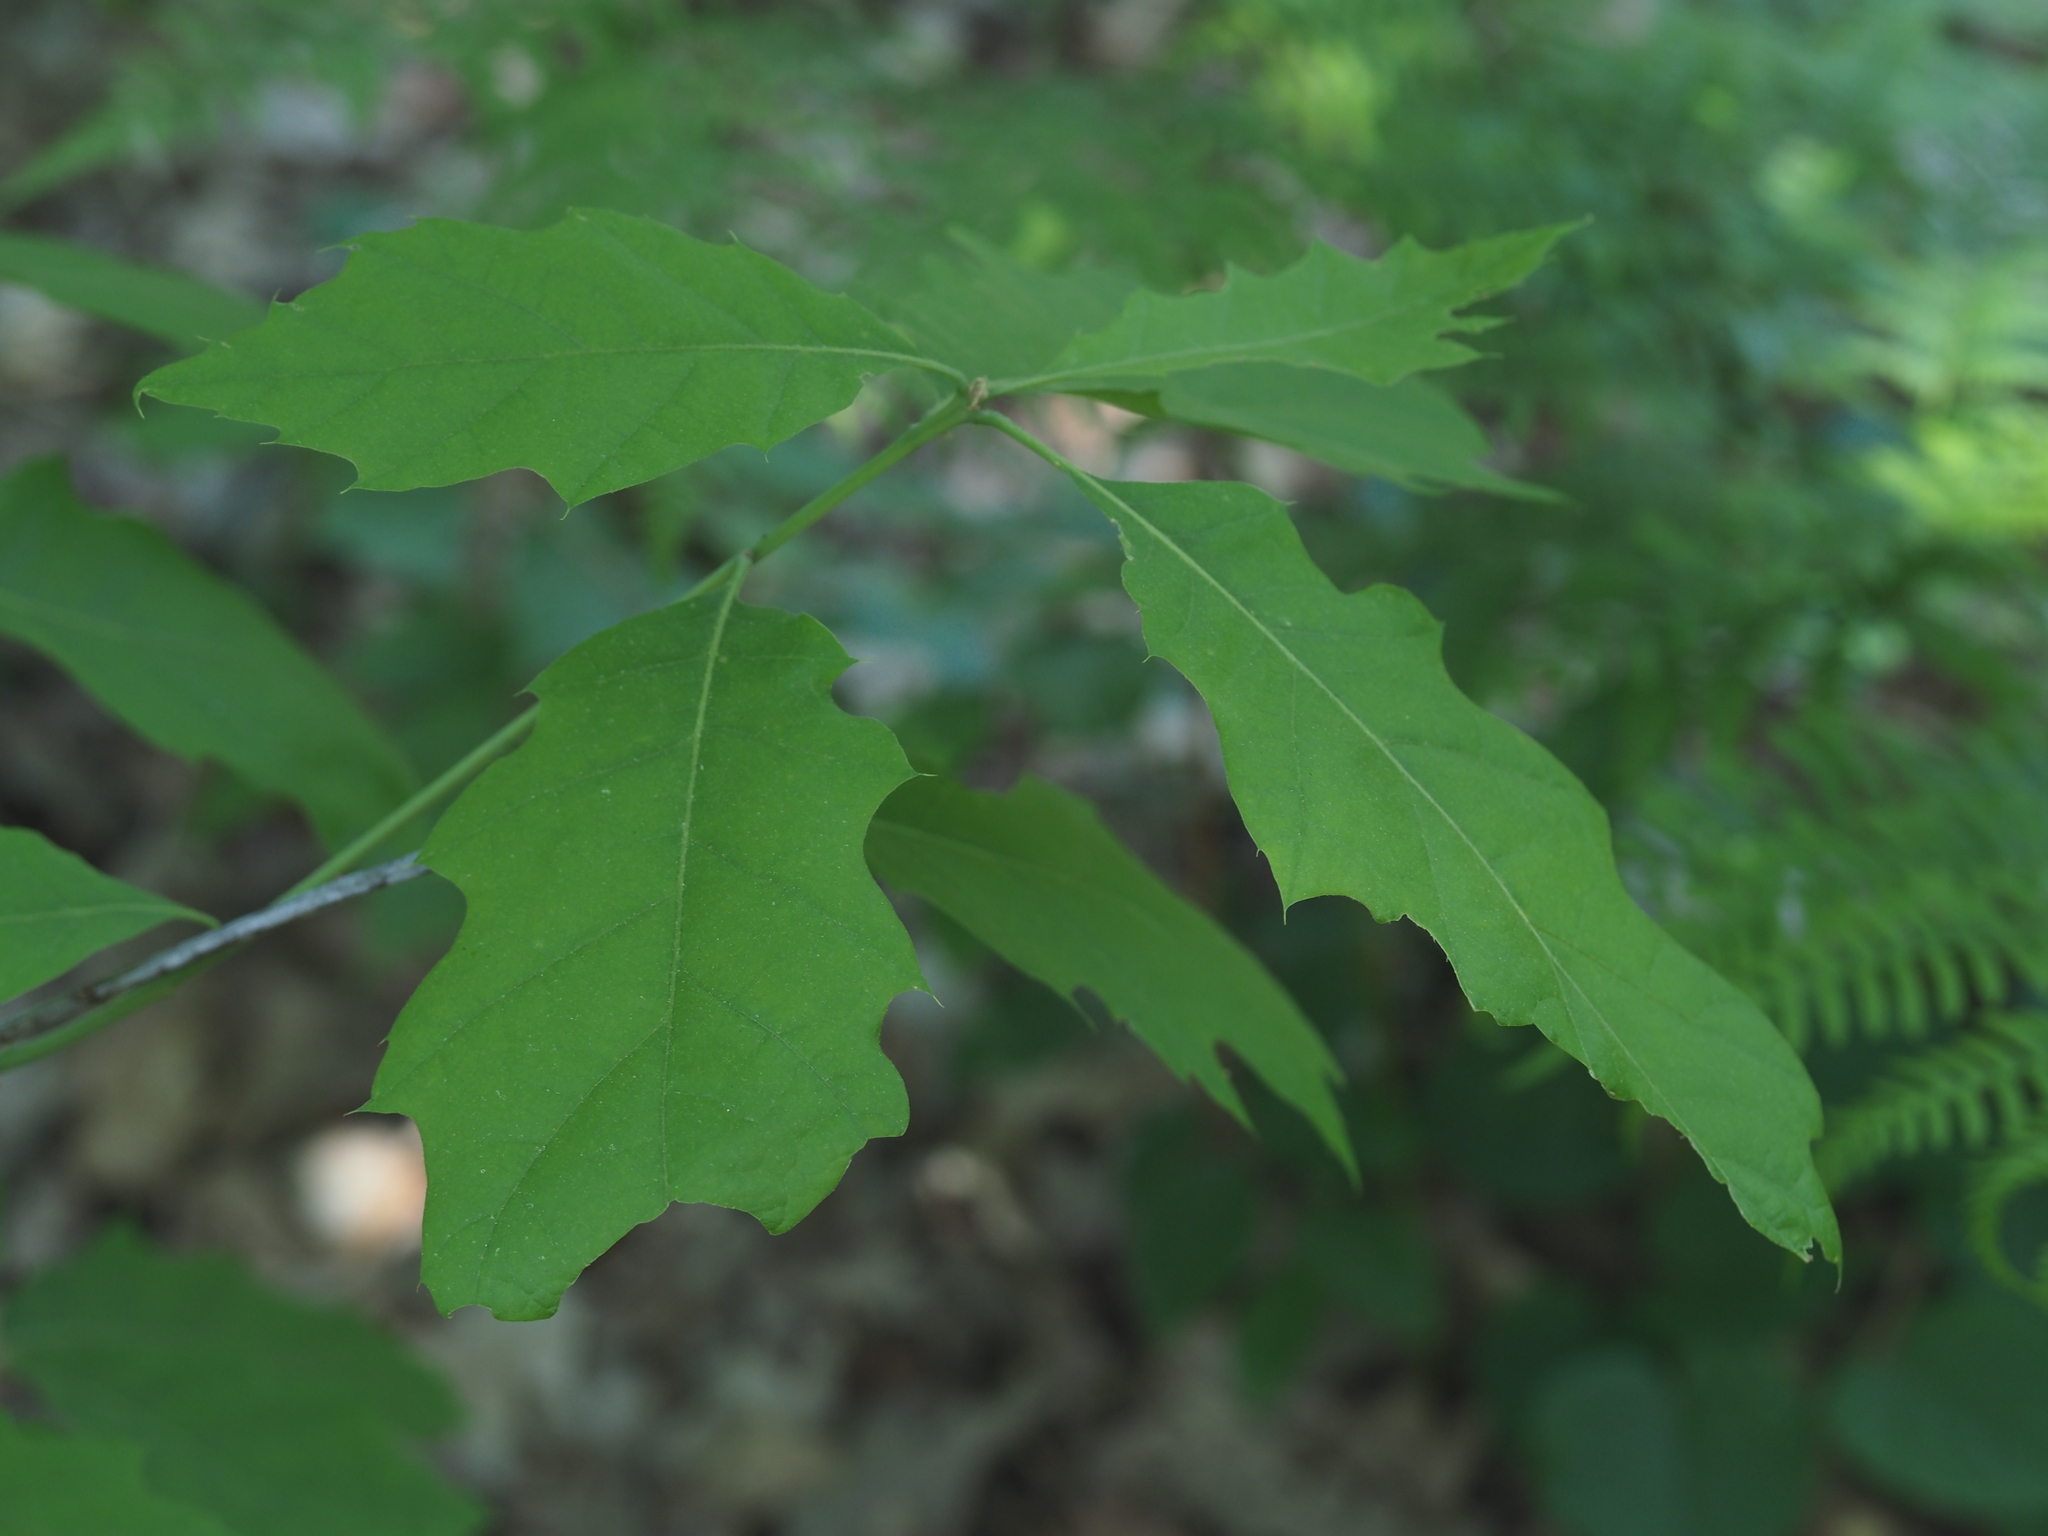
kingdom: Plantae
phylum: Tracheophyta
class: Magnoliopsida
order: Fagales
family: Fagaceae
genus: Quercus
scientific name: Quercus rubra
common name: Red oak
